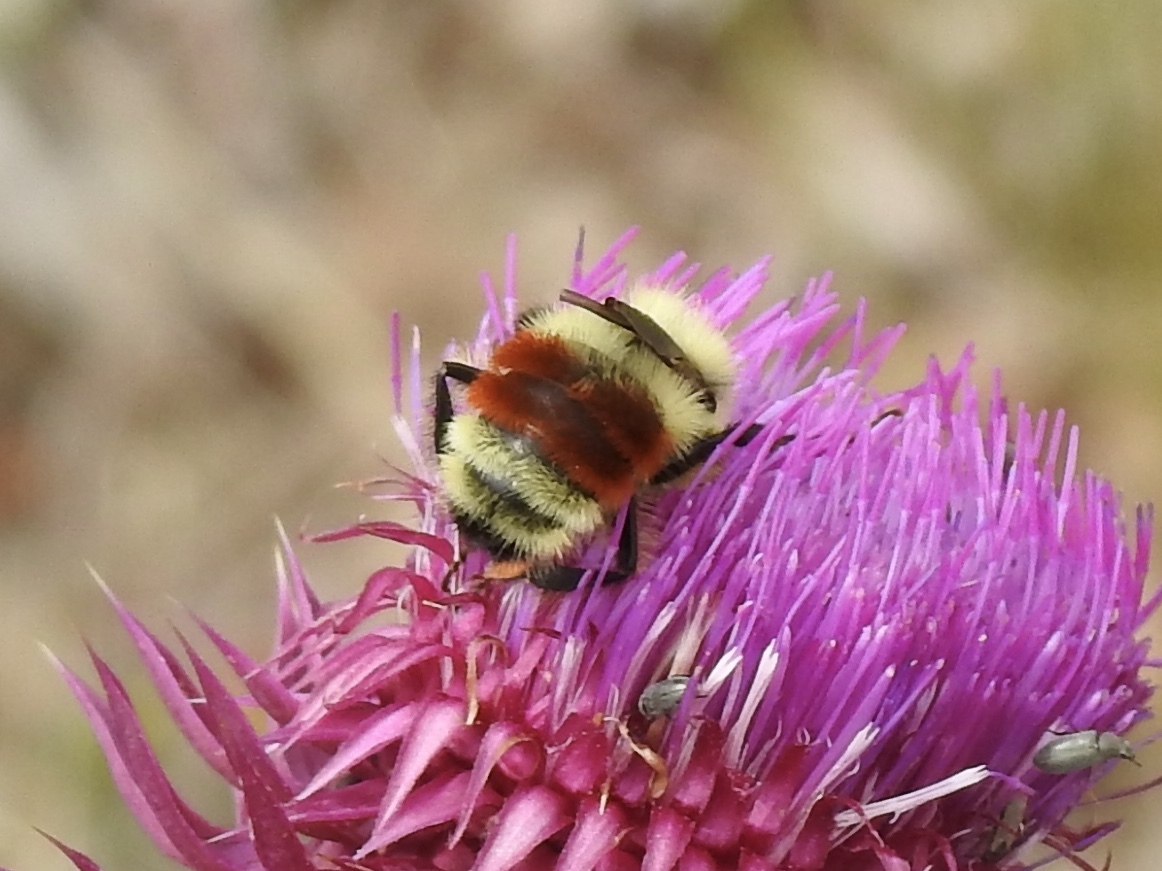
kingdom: Animalia
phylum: Arthropoda
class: Insecta
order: Hymenoptera
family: Apidae
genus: Bombus
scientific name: Bombus huntii
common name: Hunt bumble bee
